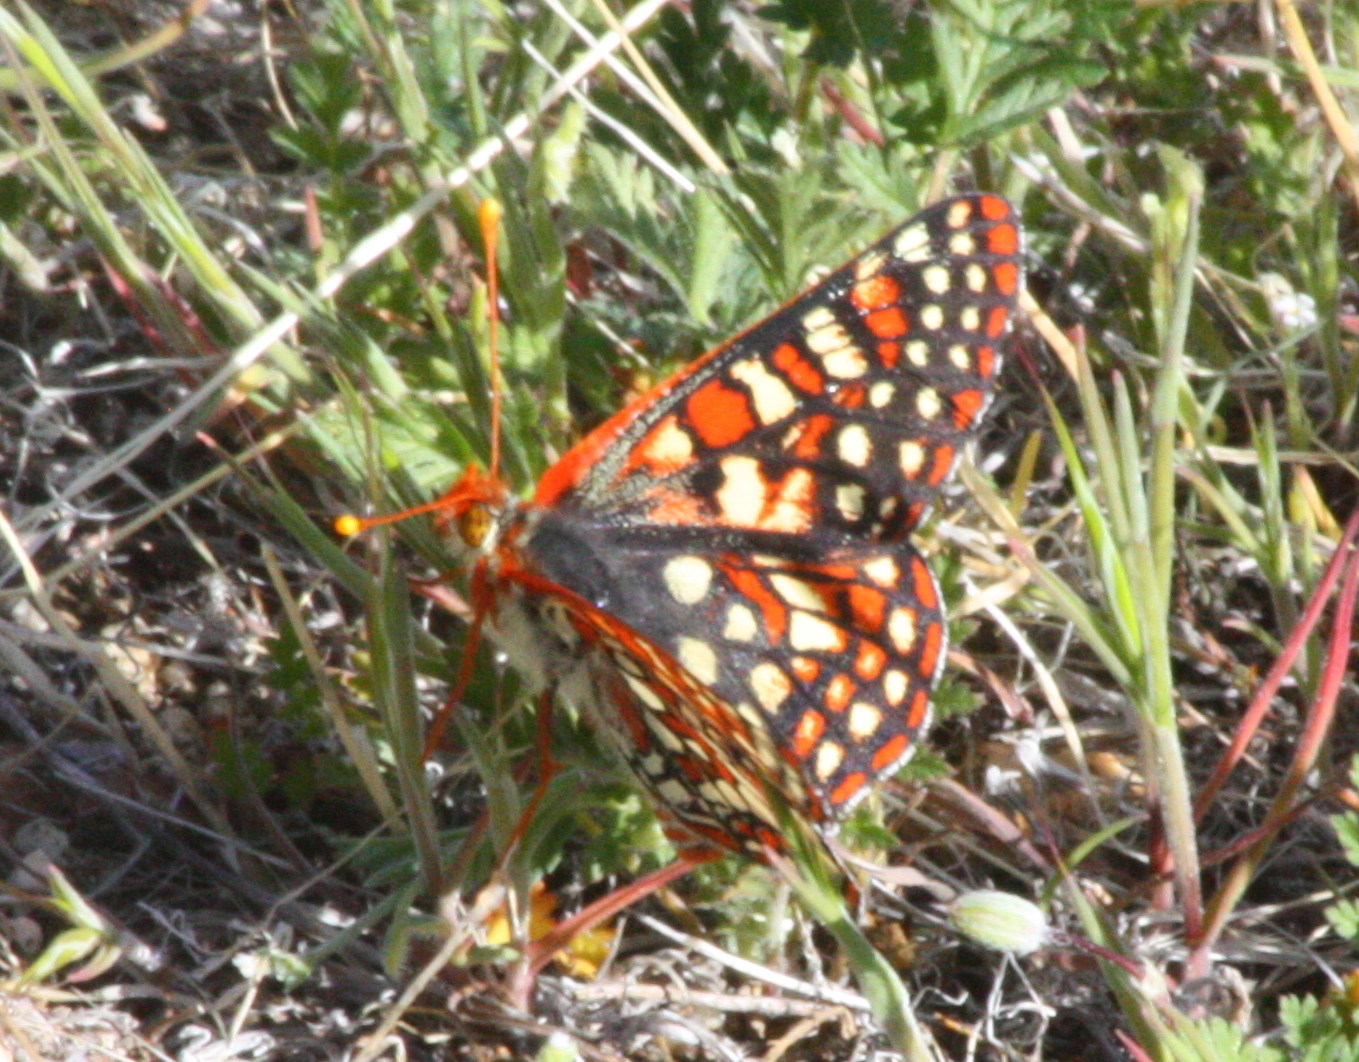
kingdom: Animalia
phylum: Arthropoda
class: Insecta
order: Lepidoptera
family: Nymphalidae
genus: Occidryas
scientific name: Occidryas chalcedona
